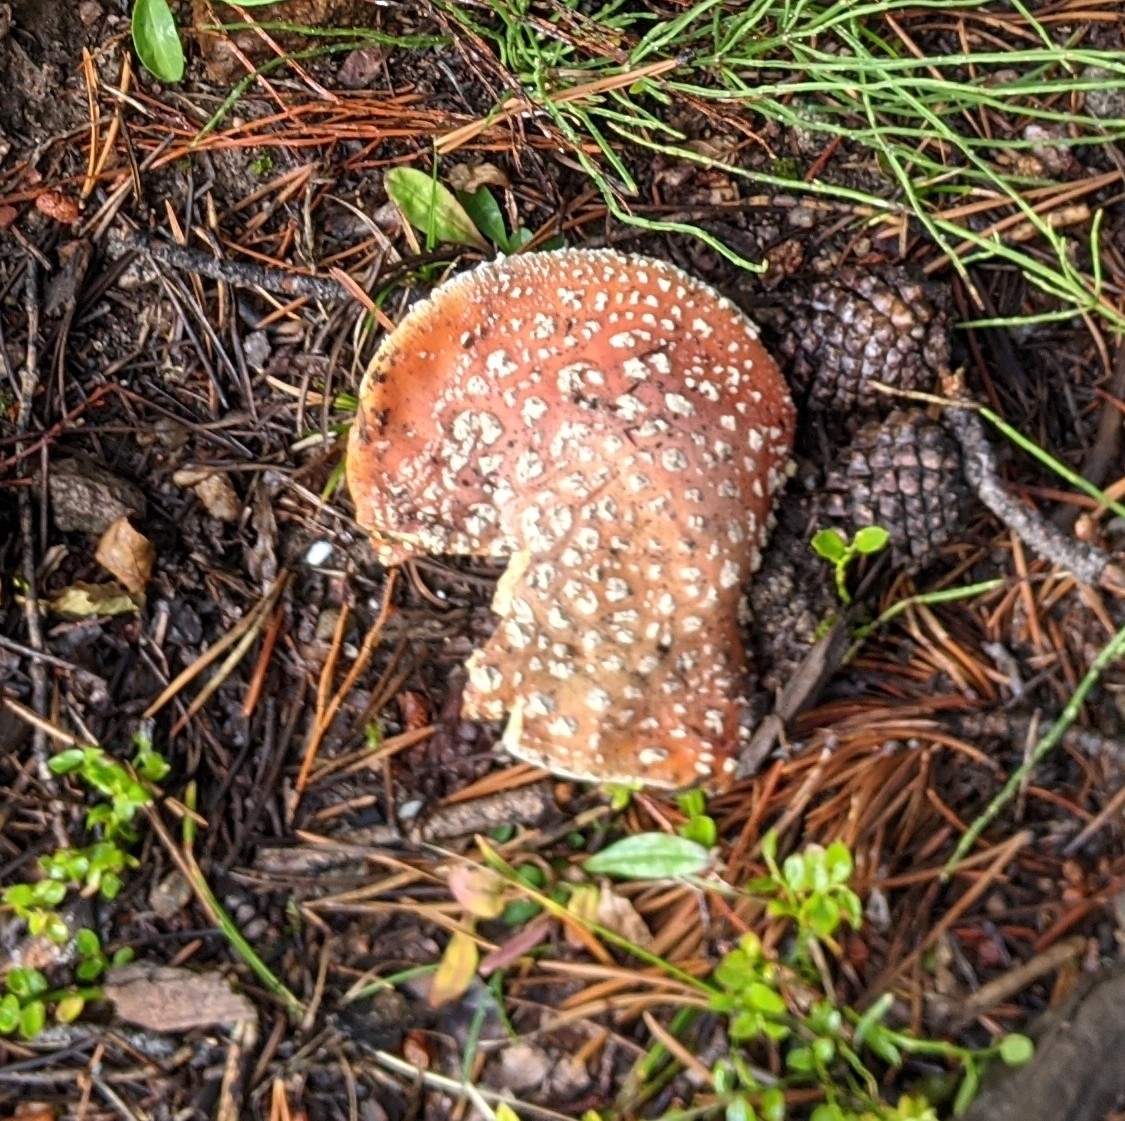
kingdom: Fungi
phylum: Basidiomycota
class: Agaricomycetes
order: Agaricales
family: Amanitaceae
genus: Amanita
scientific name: Amanita muscaria
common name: Fly agaric
